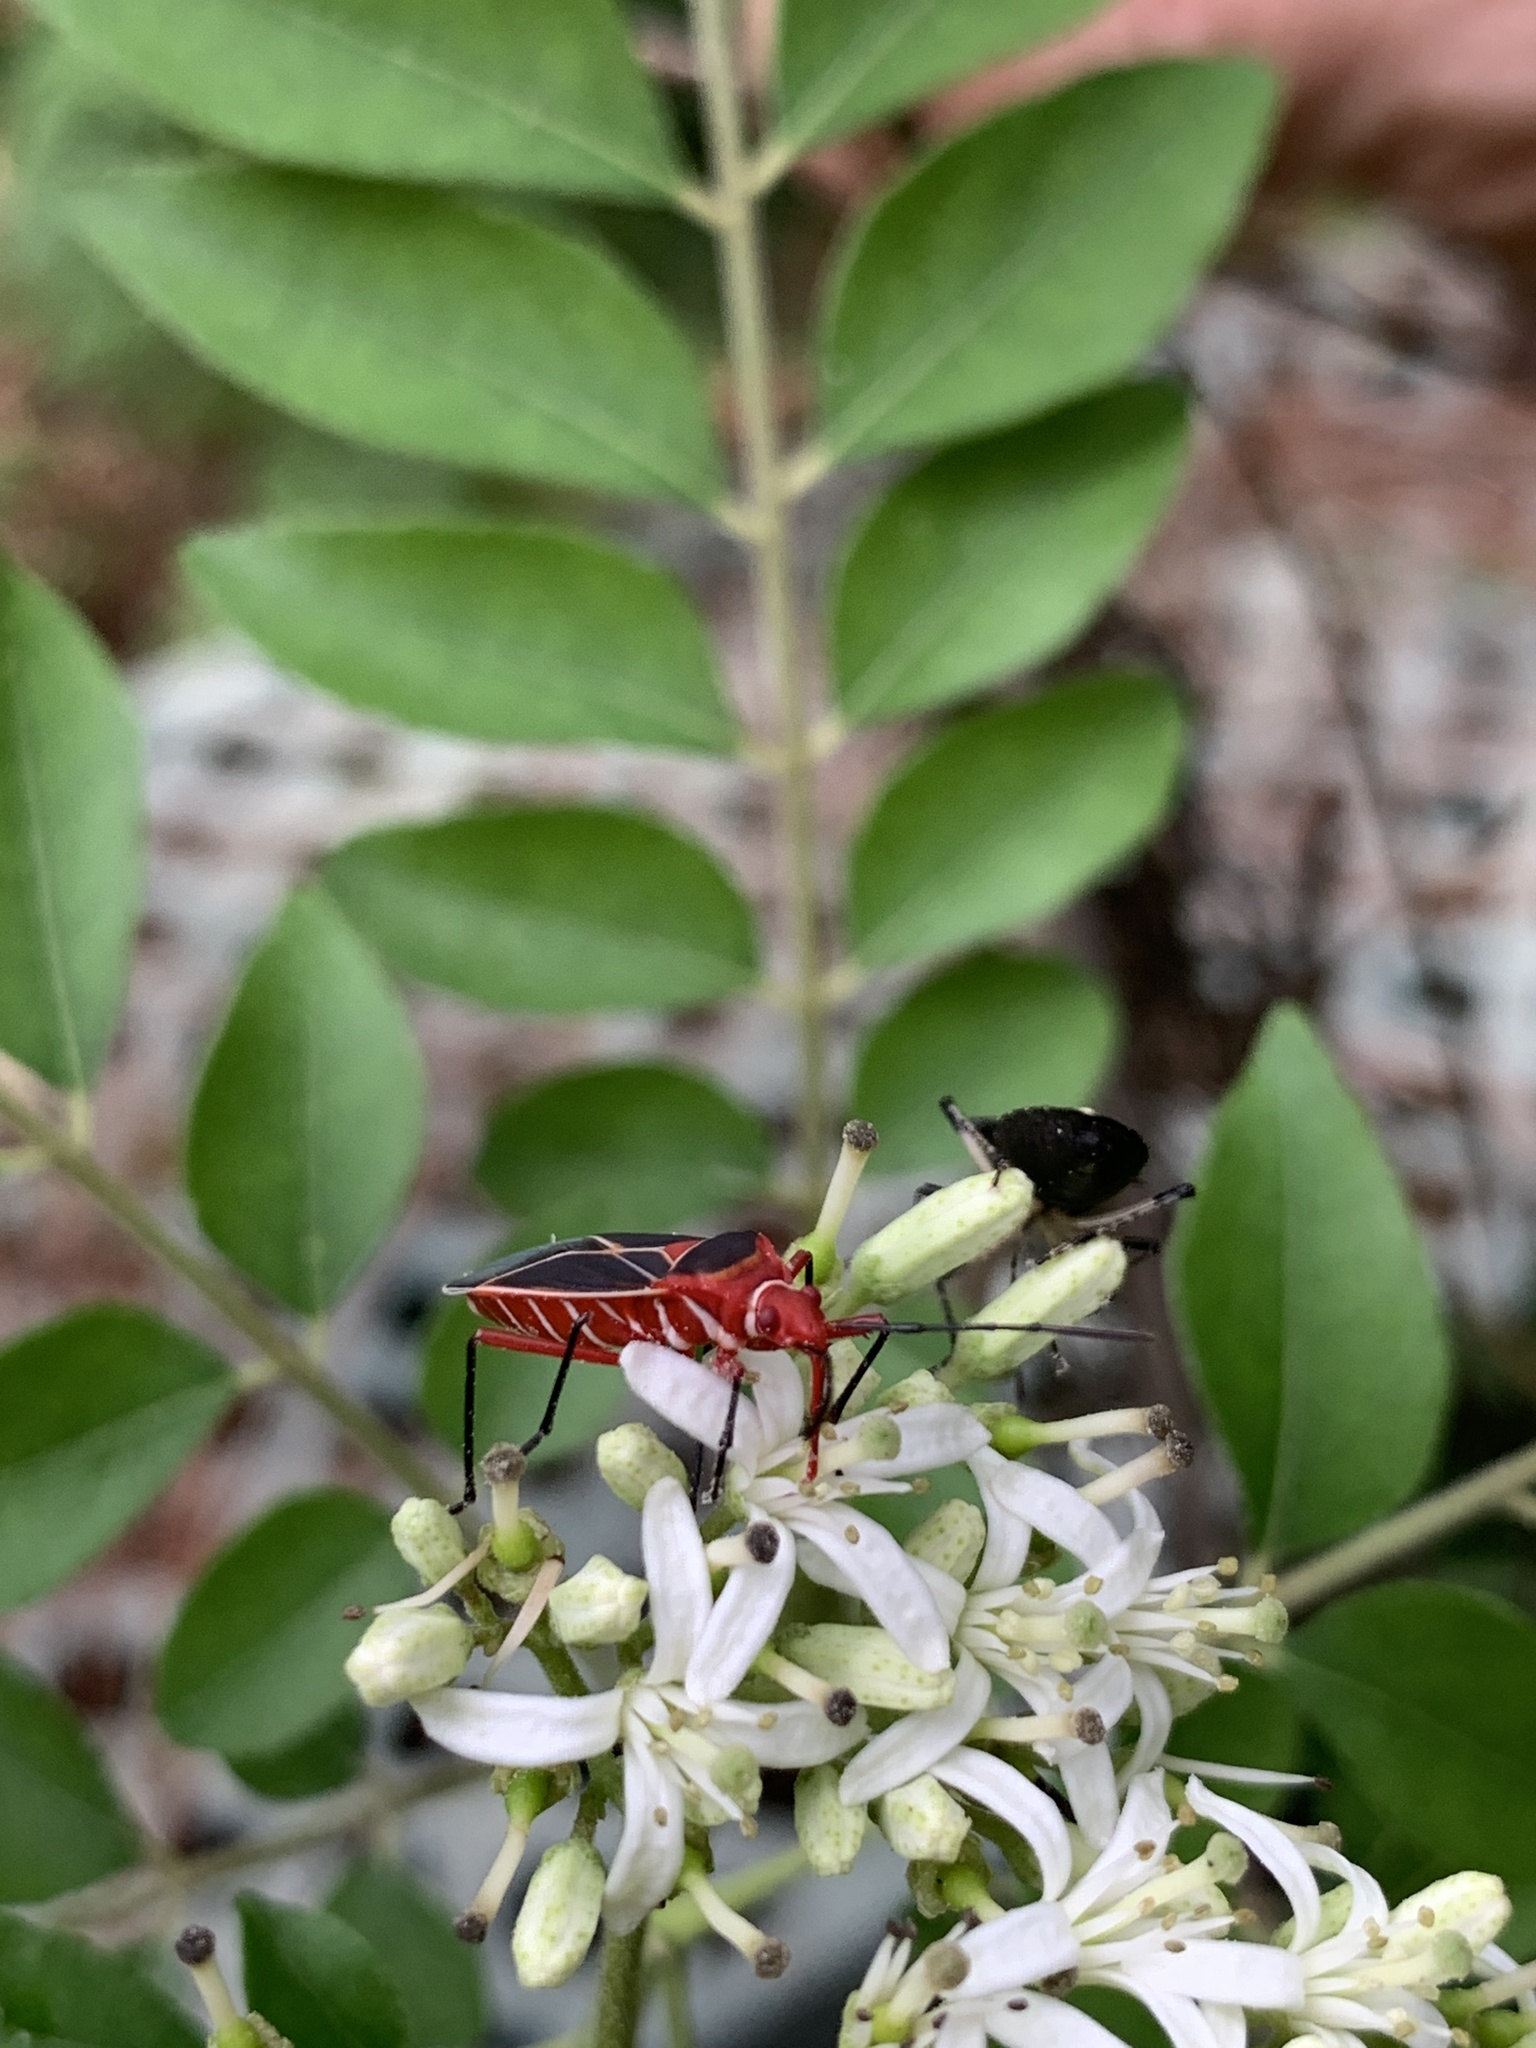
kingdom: Animalia
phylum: Arthropoda
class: Insecta
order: Hemiptera
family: Pyrrhocoridae
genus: Dysdercus
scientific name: Dysdercus suturellus
